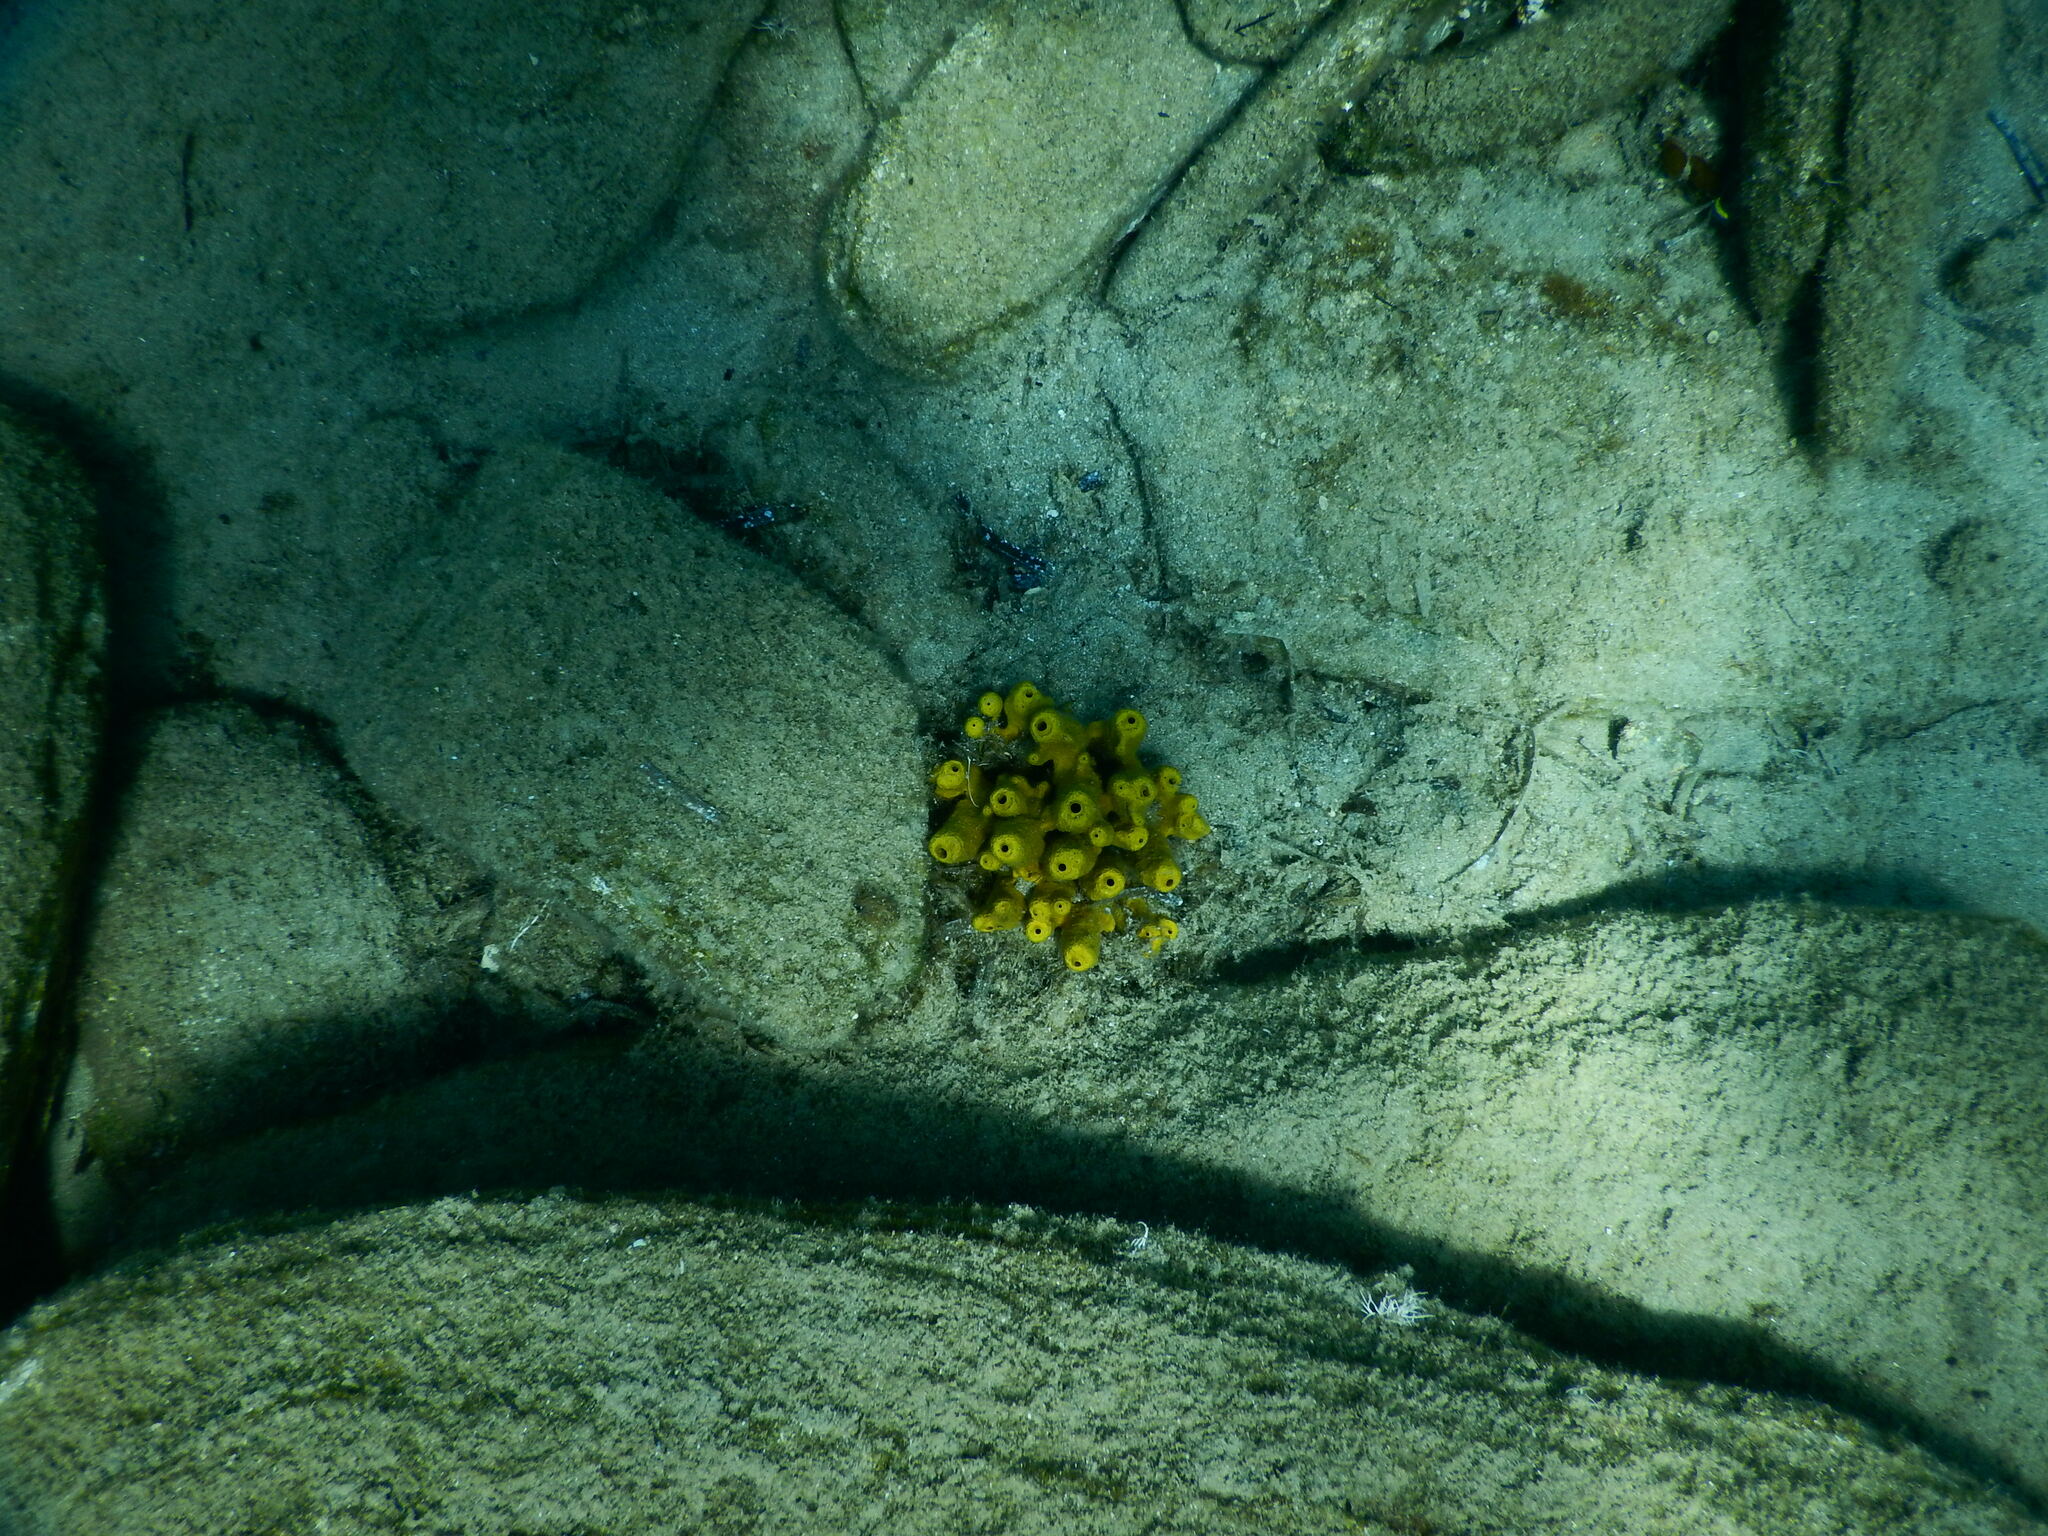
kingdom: Animalia
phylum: Porifera
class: Demospongiae
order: Verongiida
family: Aplysinidae
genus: Aplysina
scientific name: Aplysina aerophoba
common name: Aureate sponge
